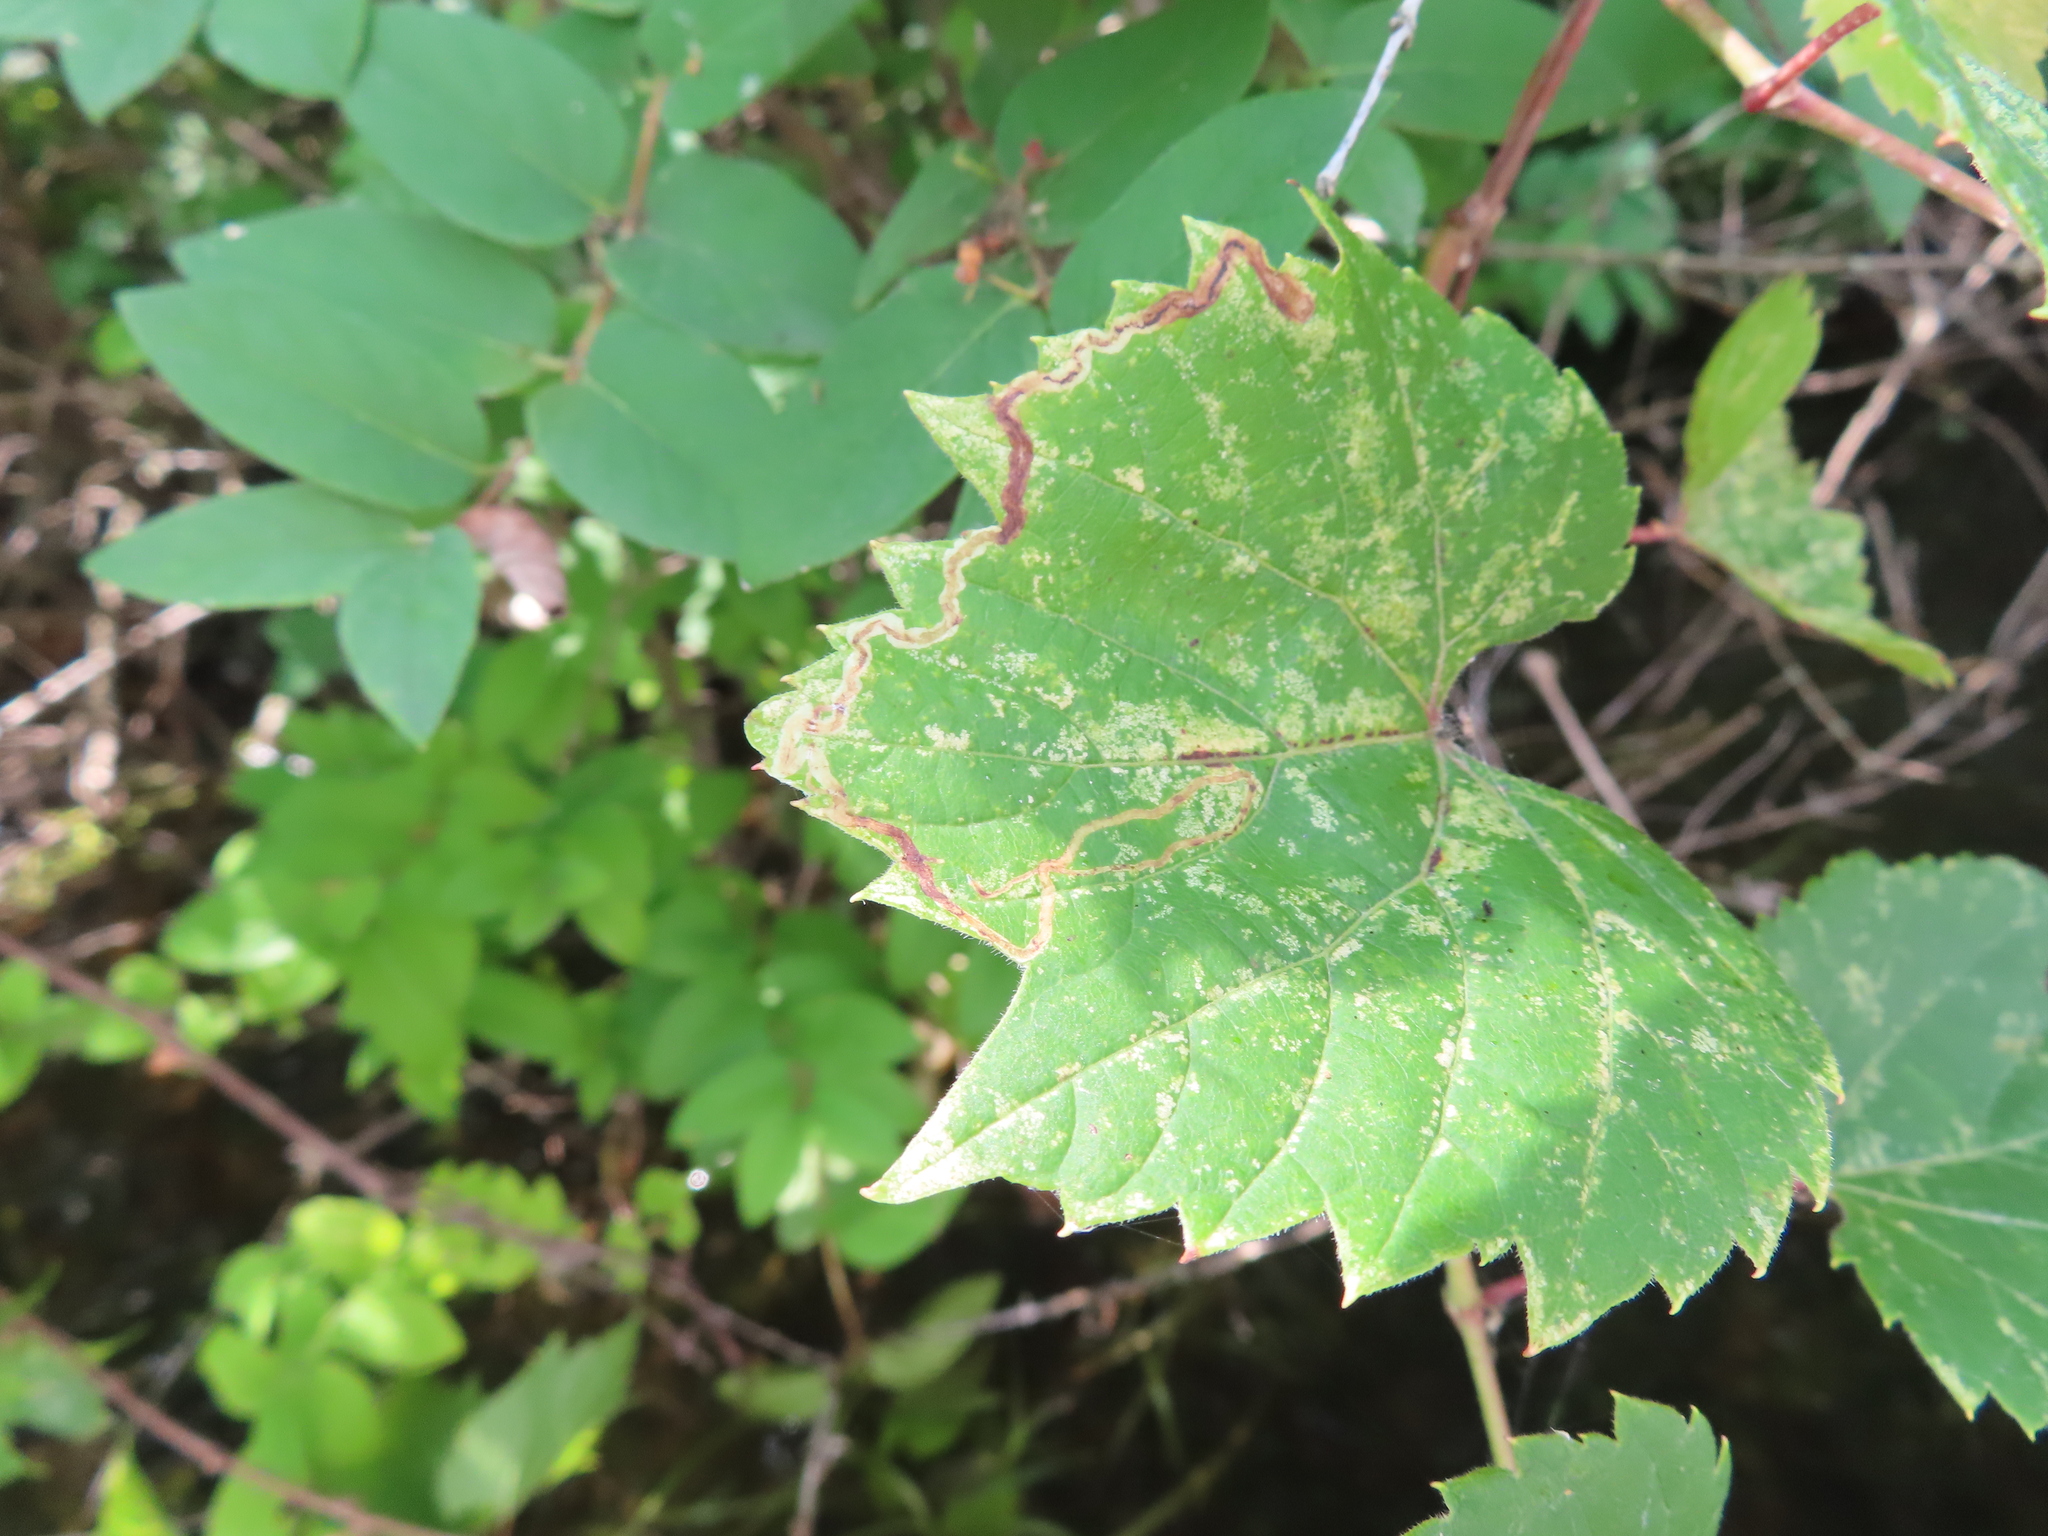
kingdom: Animalia
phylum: Arthropoda
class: Insecta
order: Lepidoptera
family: Gracillariidae
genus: Phyllocnistis
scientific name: Phyllocnistis vitifoliella
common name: Grape leaf-miner moth
